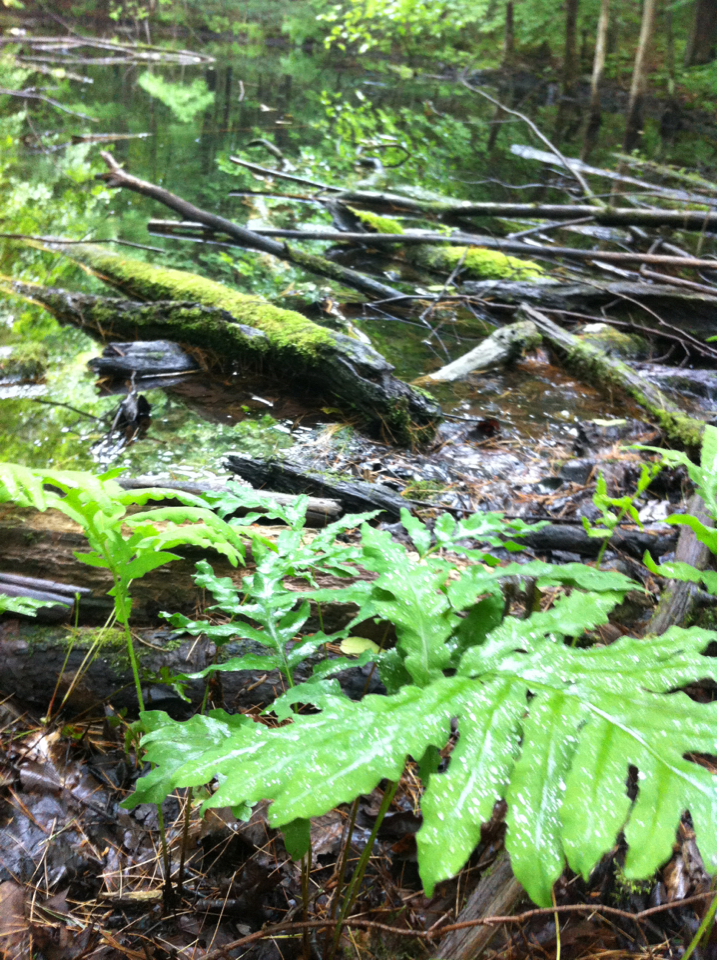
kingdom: Plantae
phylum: Tracheophyta
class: Polypodiopsida
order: Polypodiales
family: Onocleaceae
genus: Onoclea
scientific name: Onoclea sensibilis
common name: Sensitive fern
